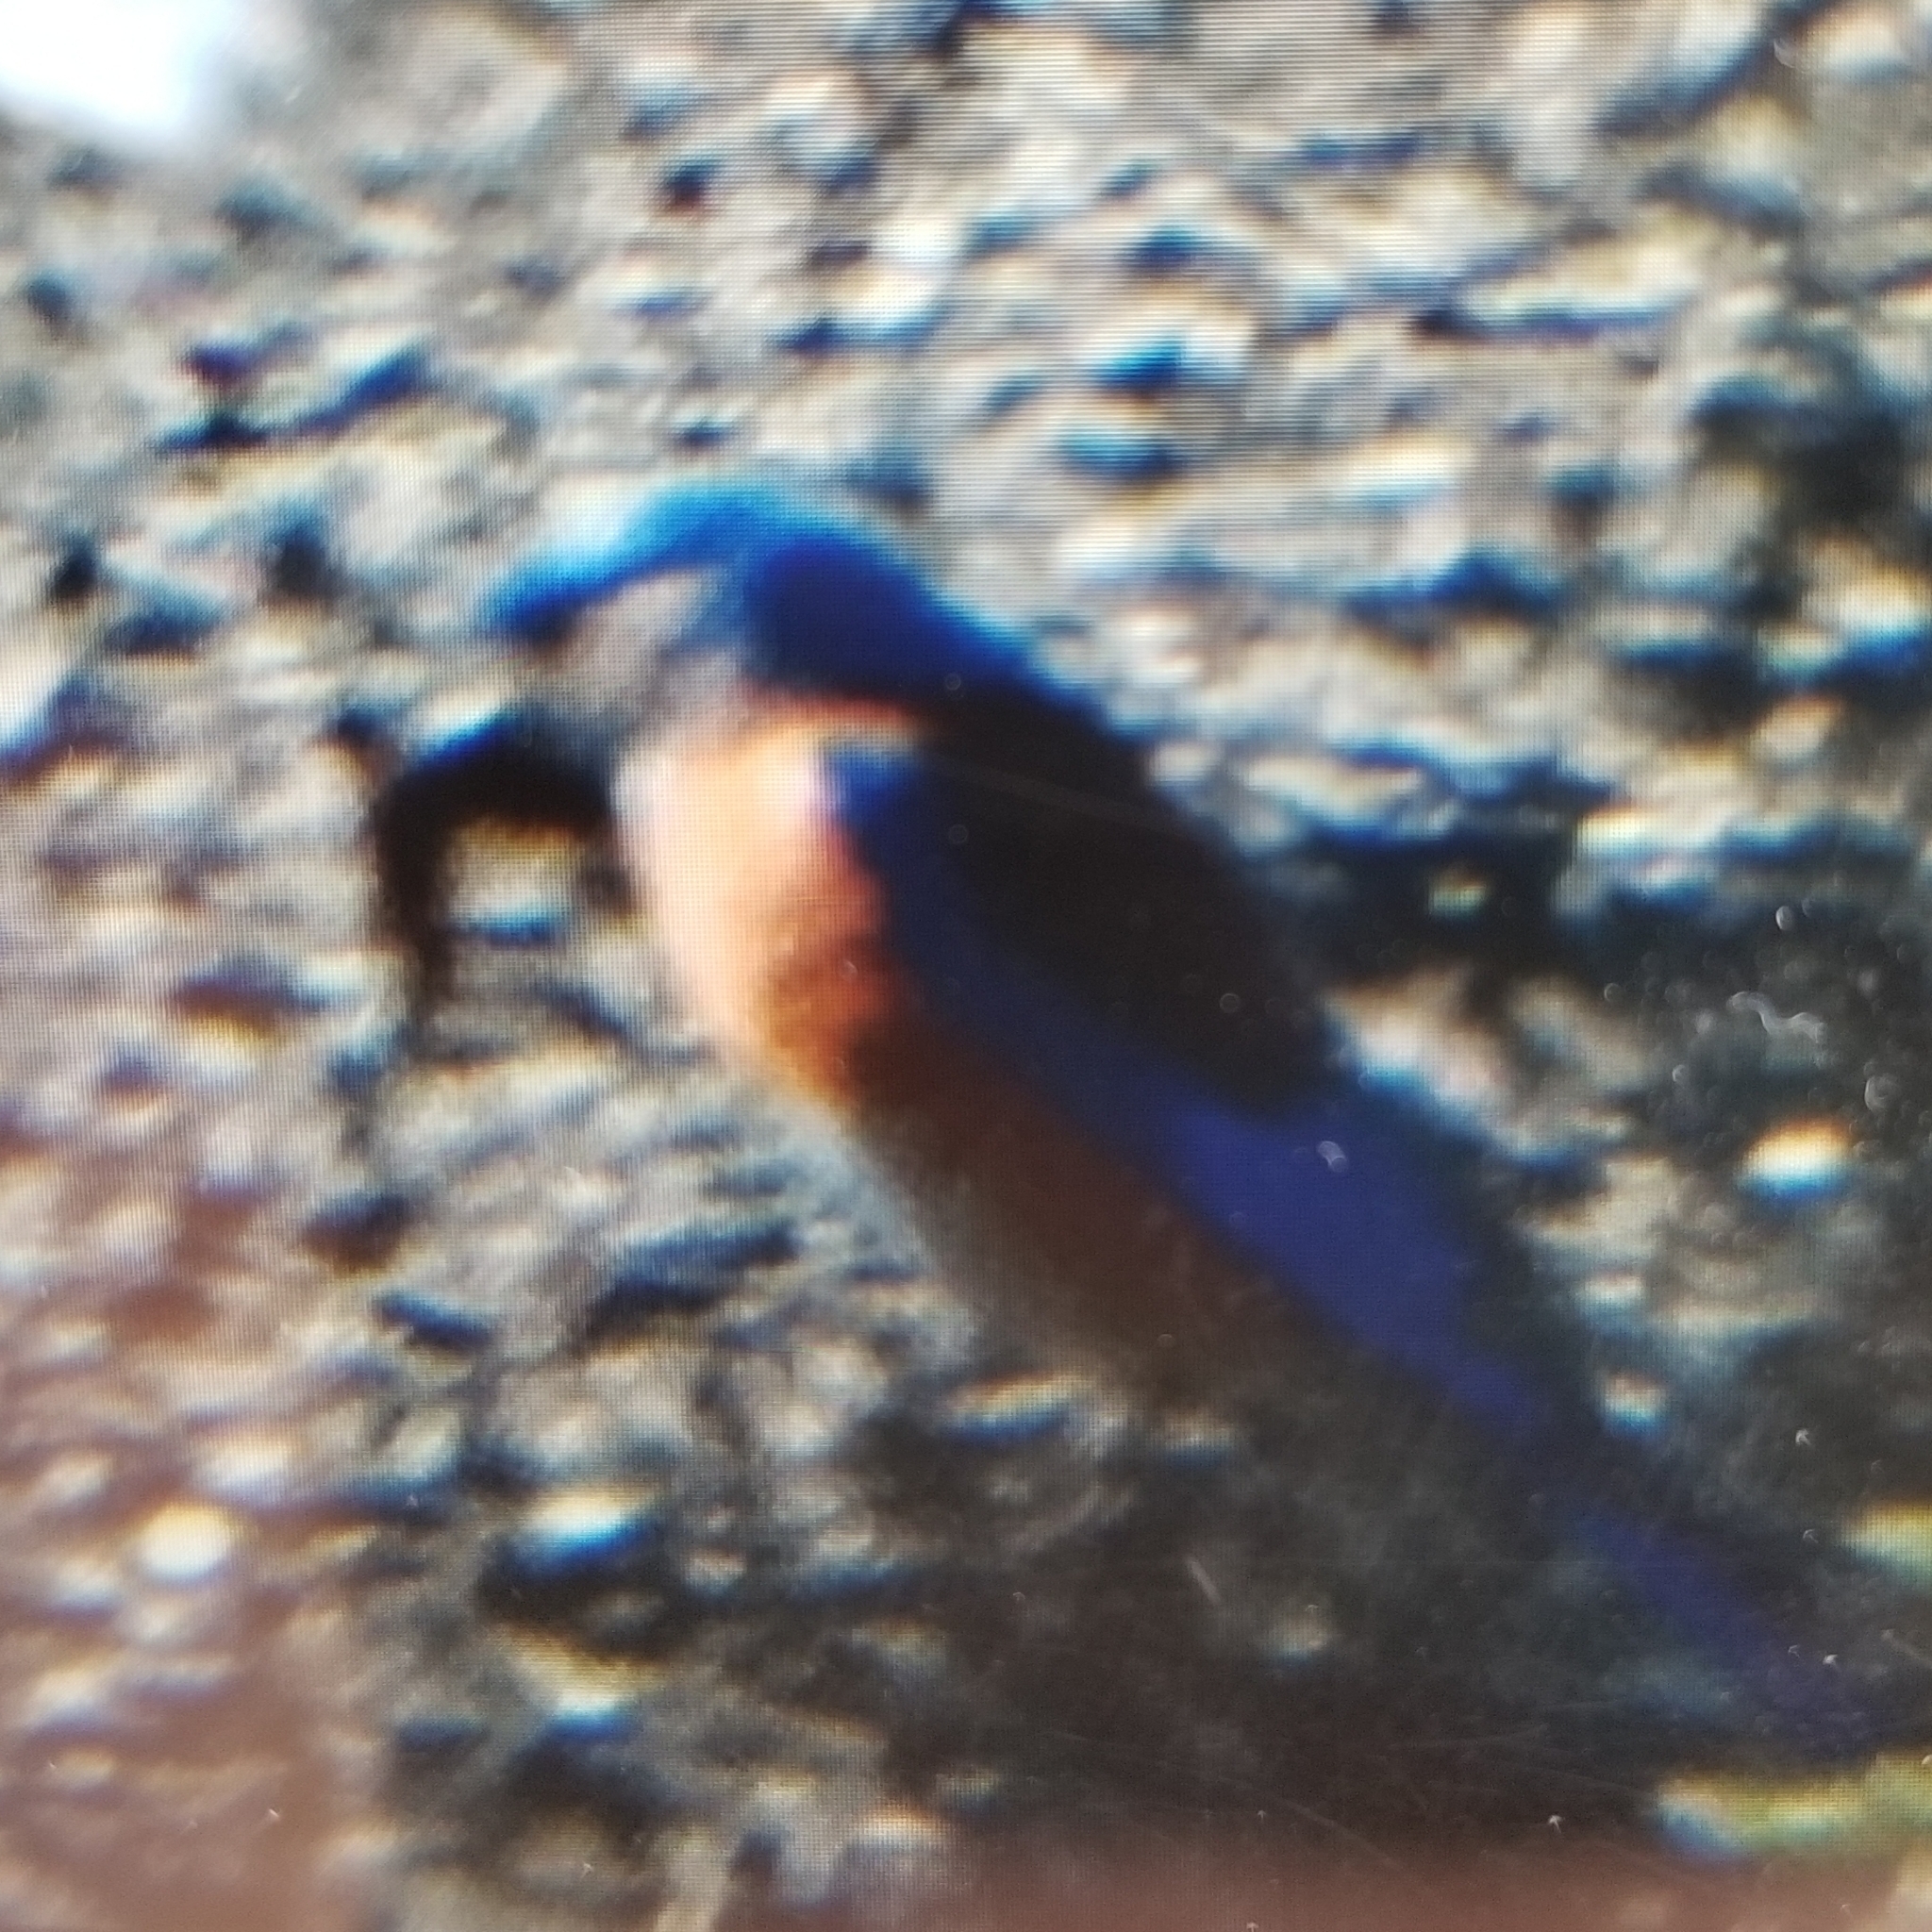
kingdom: Animalia
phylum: Chordata
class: Aves
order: Passeriformes
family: Turdidae
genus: Sialia
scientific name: Sialia mexicana
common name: Western bluebird
